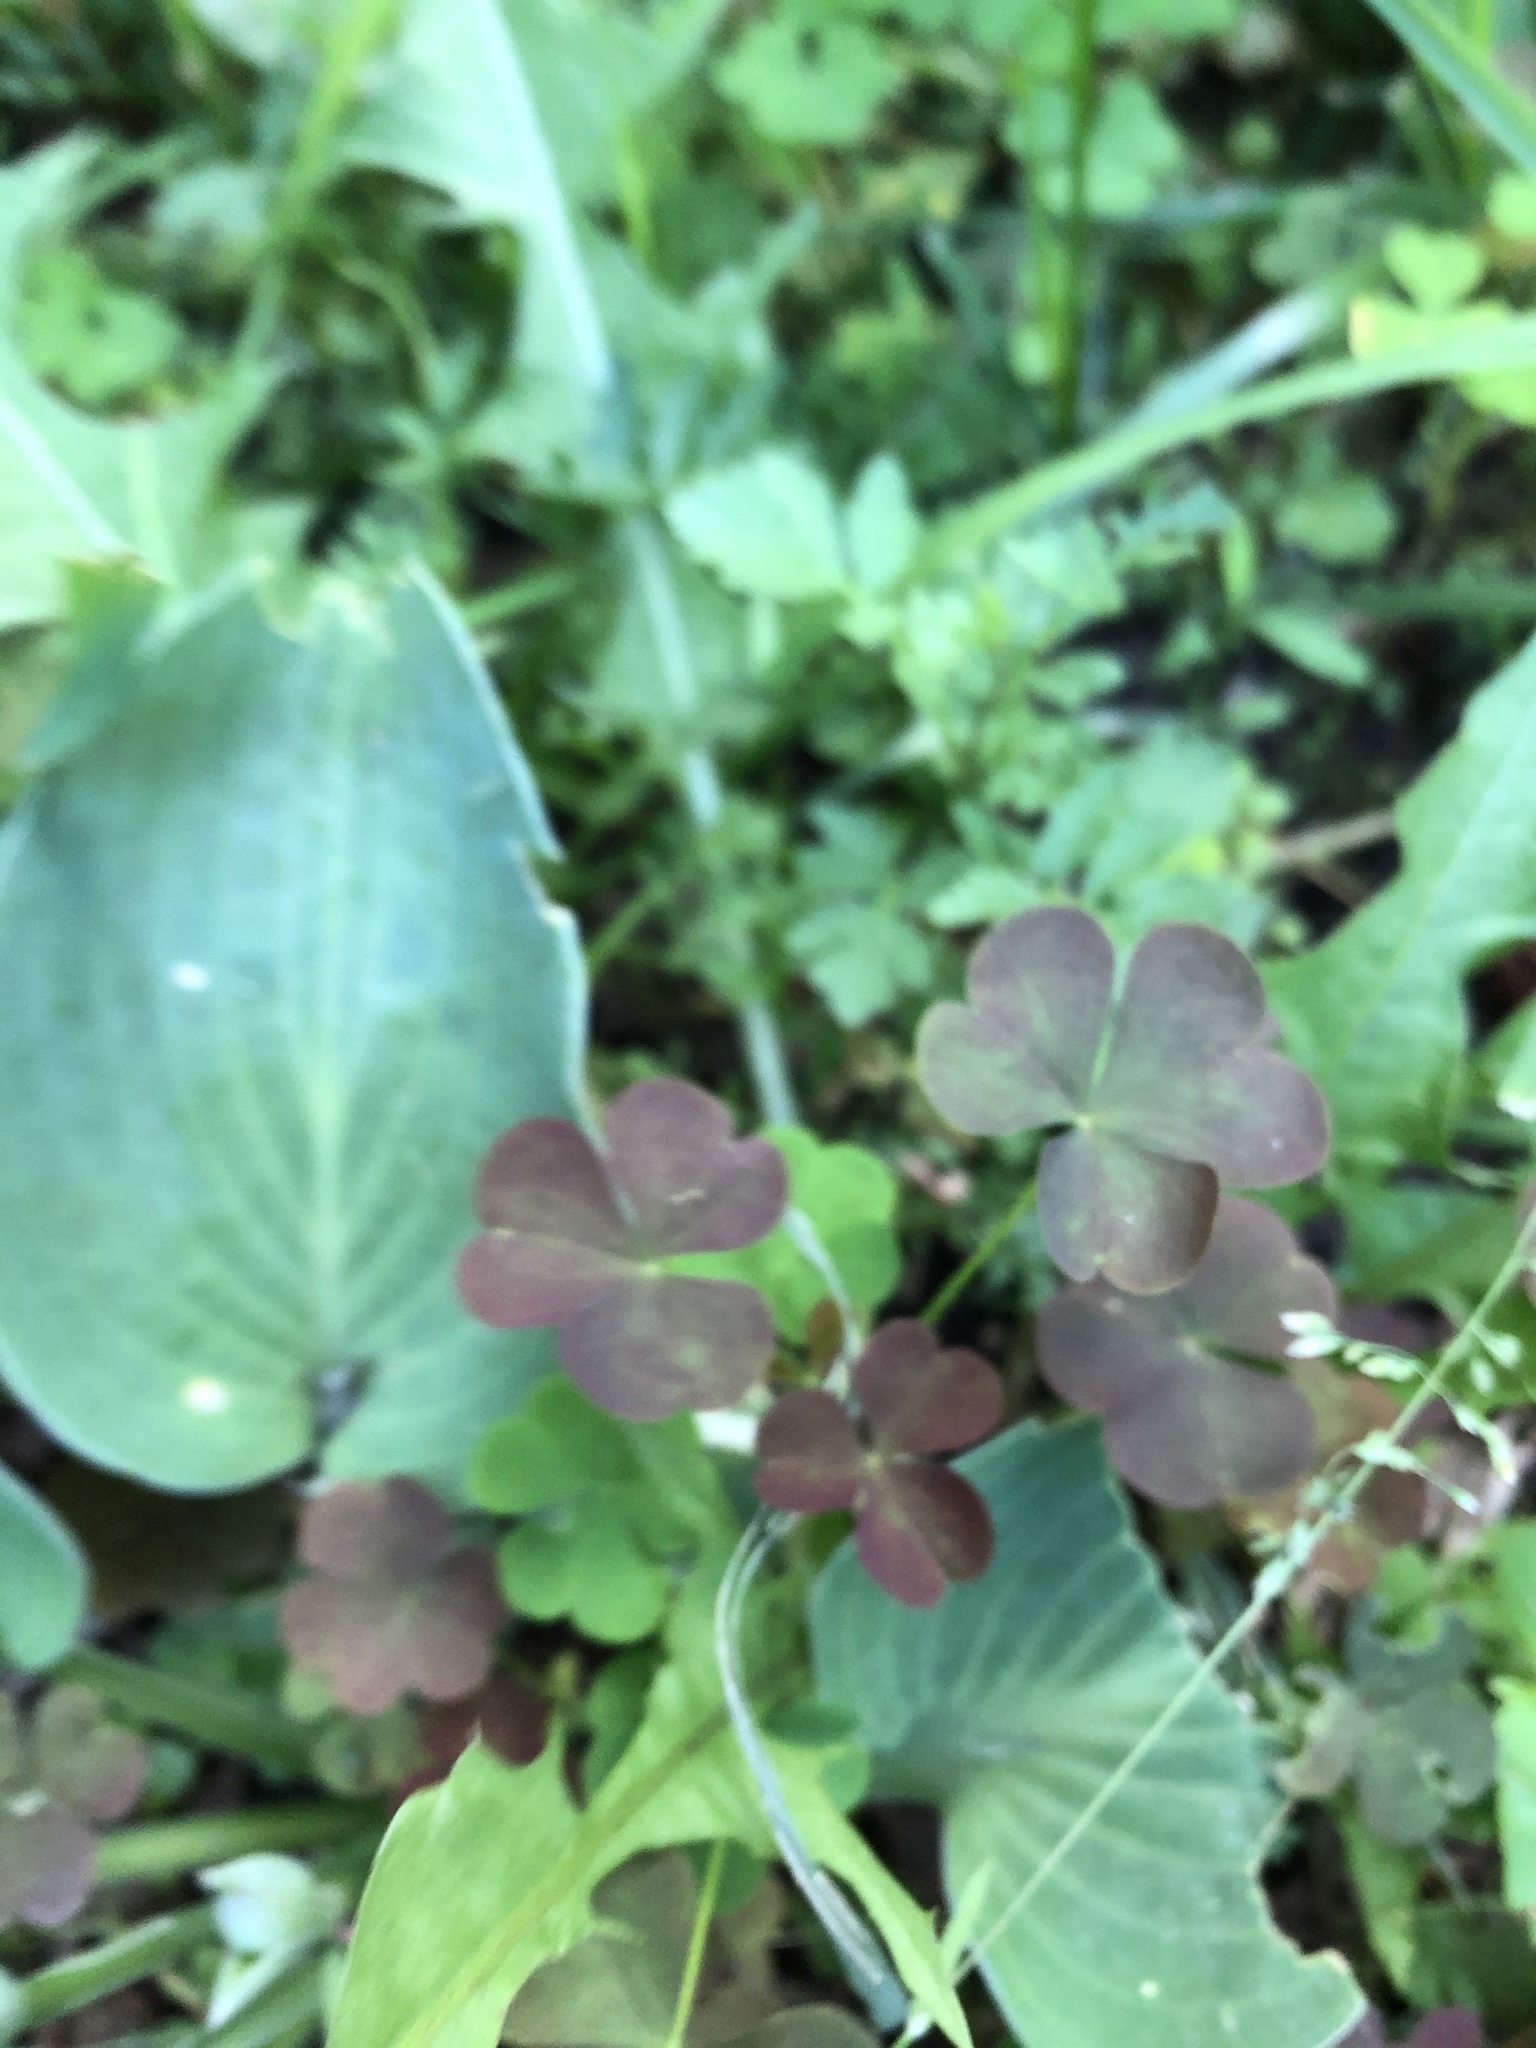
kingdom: Plantae
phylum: Tracheophyta
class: Magnoliopsida
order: Oxalidales
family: Oxalidaceae
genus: Oxalis
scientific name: Oxalis stricta
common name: Upright yellow-sorrel
